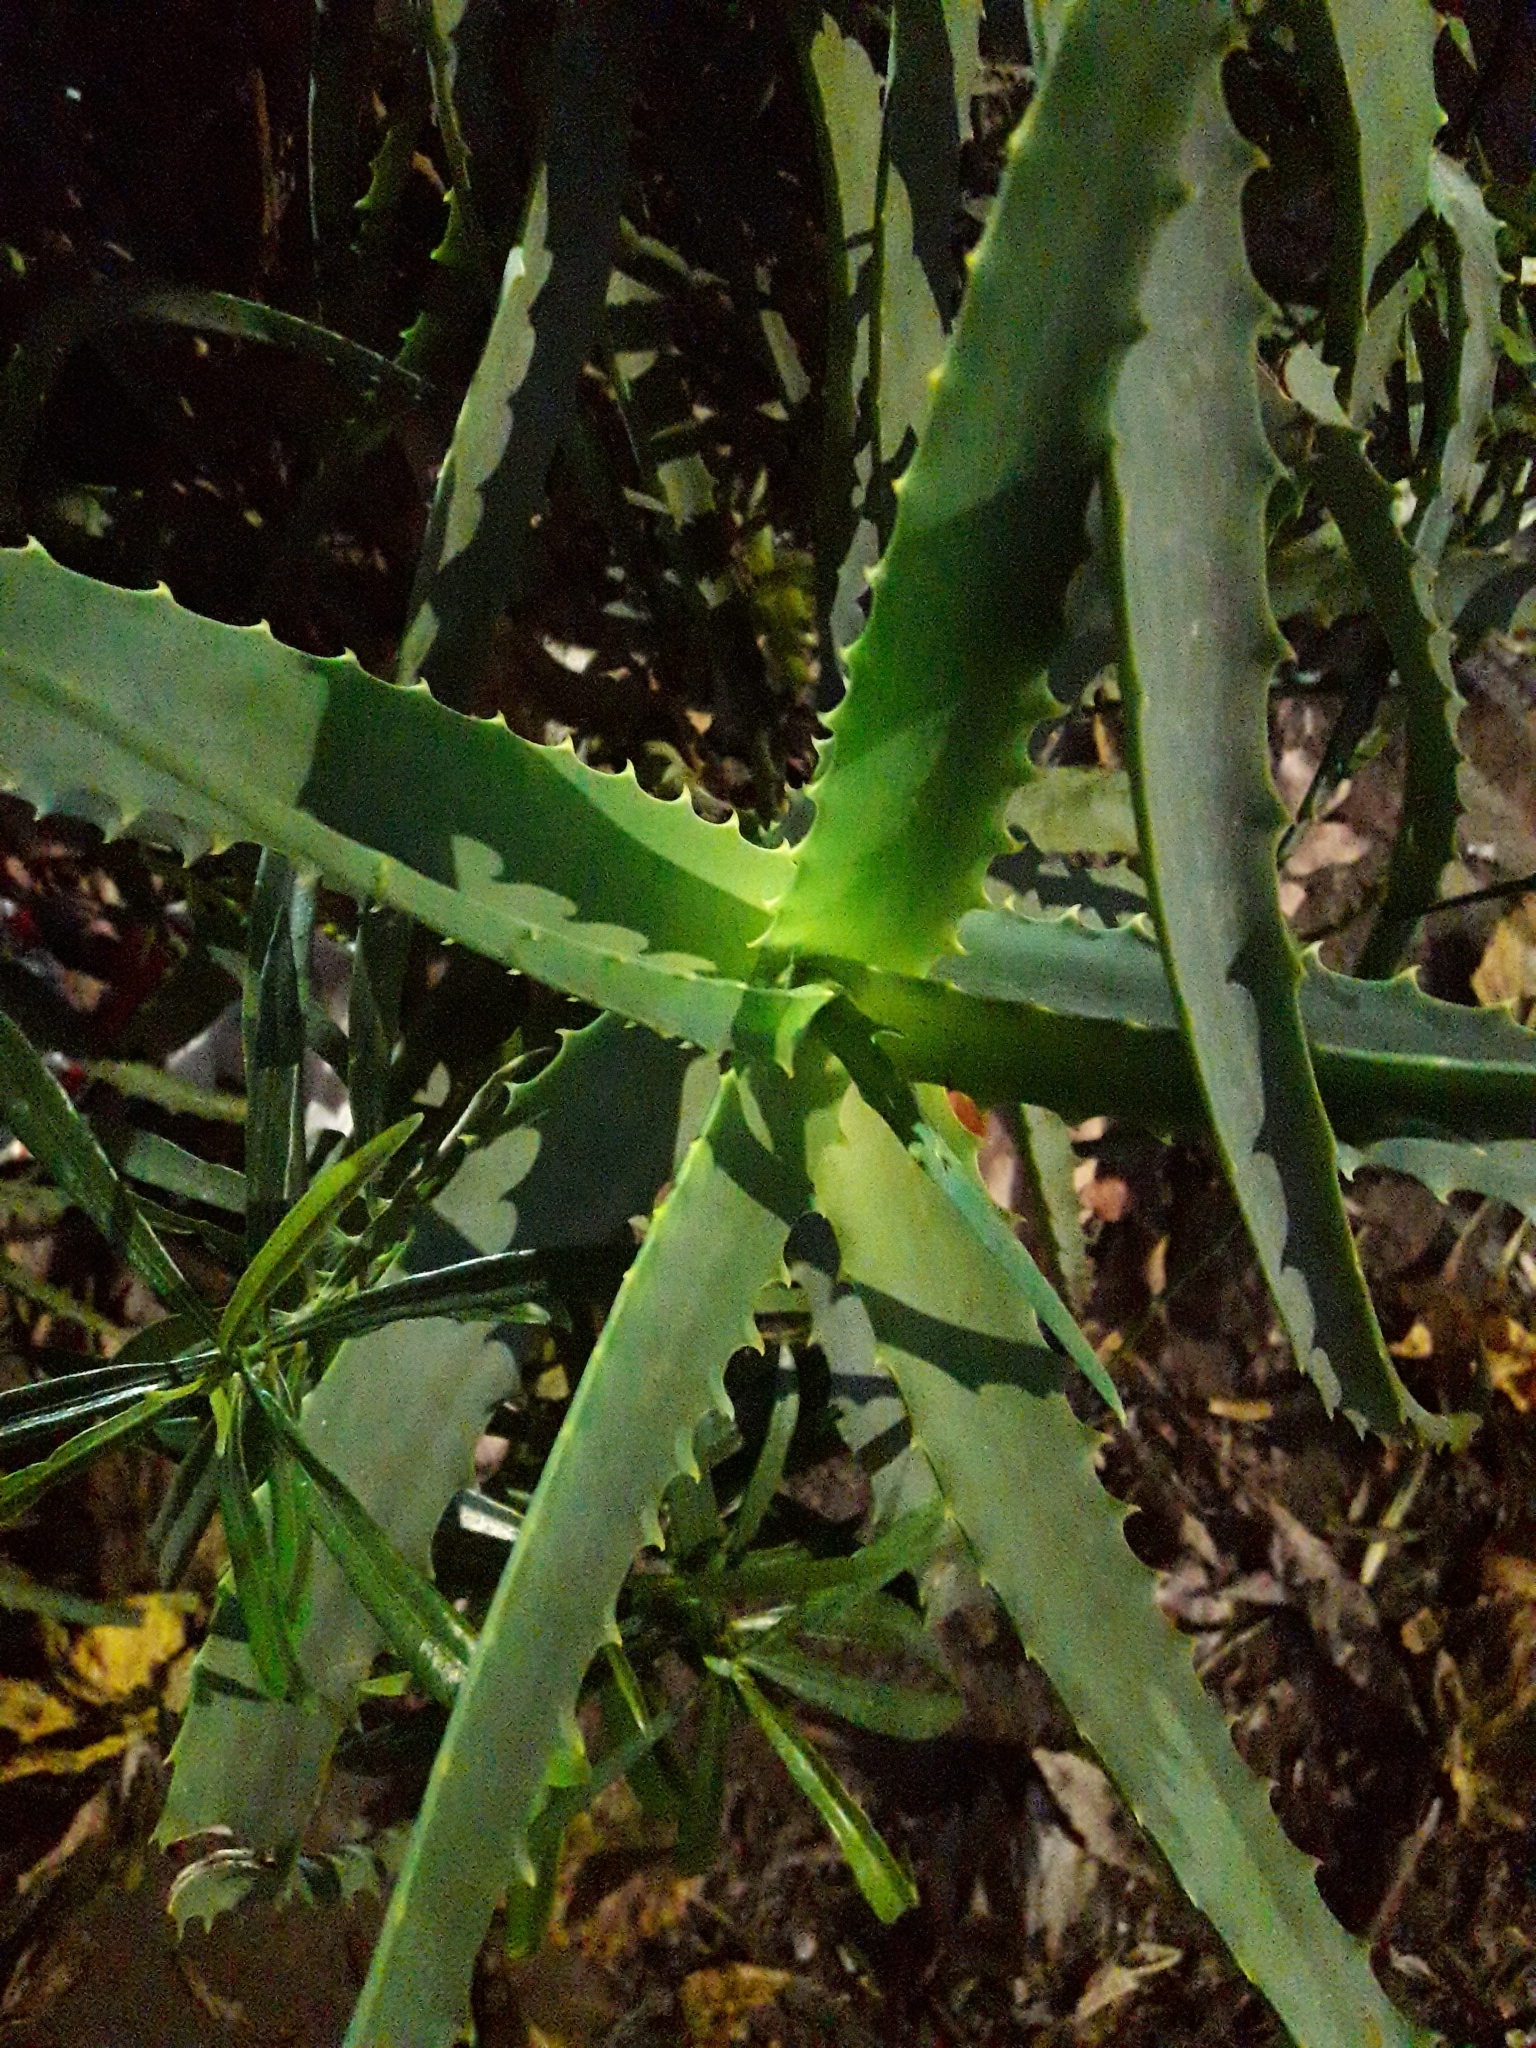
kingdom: Plantae
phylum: Tracheophyta
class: Liliopsida
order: Asparagales
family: Asphodelaceae
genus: Aloe
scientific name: Aloe arborescens
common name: Candelabra aloe
